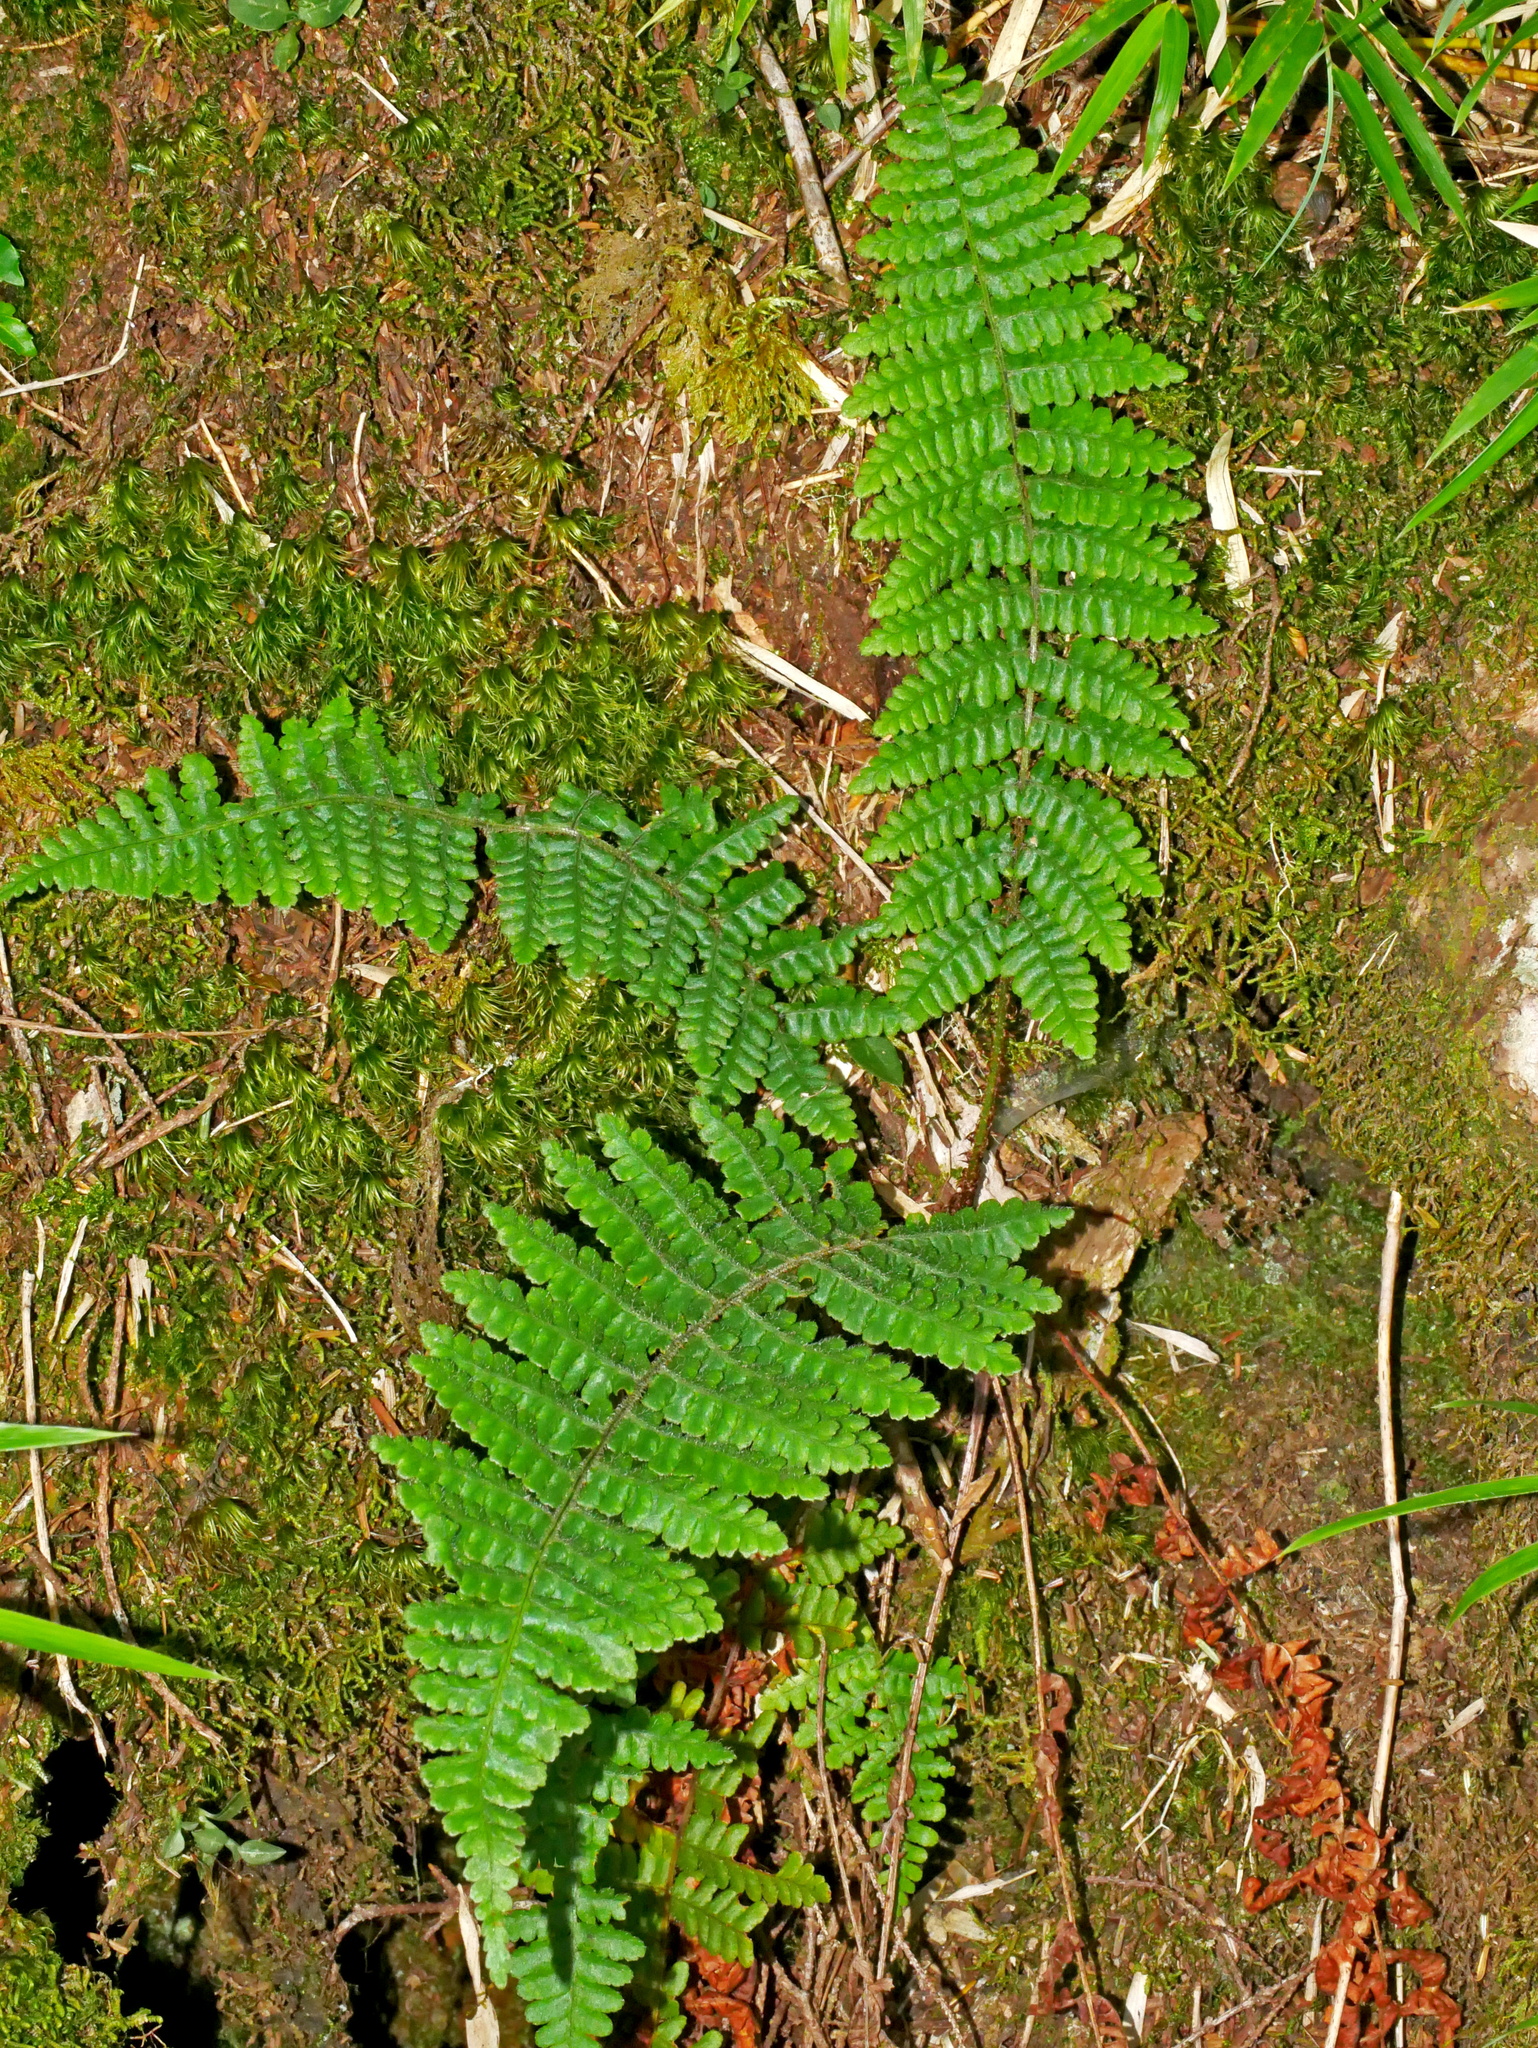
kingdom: Plantae
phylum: Tracheophyta
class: Polypodiopsida
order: Polypodiales
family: Dryopteridaceae
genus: Dryopteris
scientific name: Dryopteris transmorrisonensis
